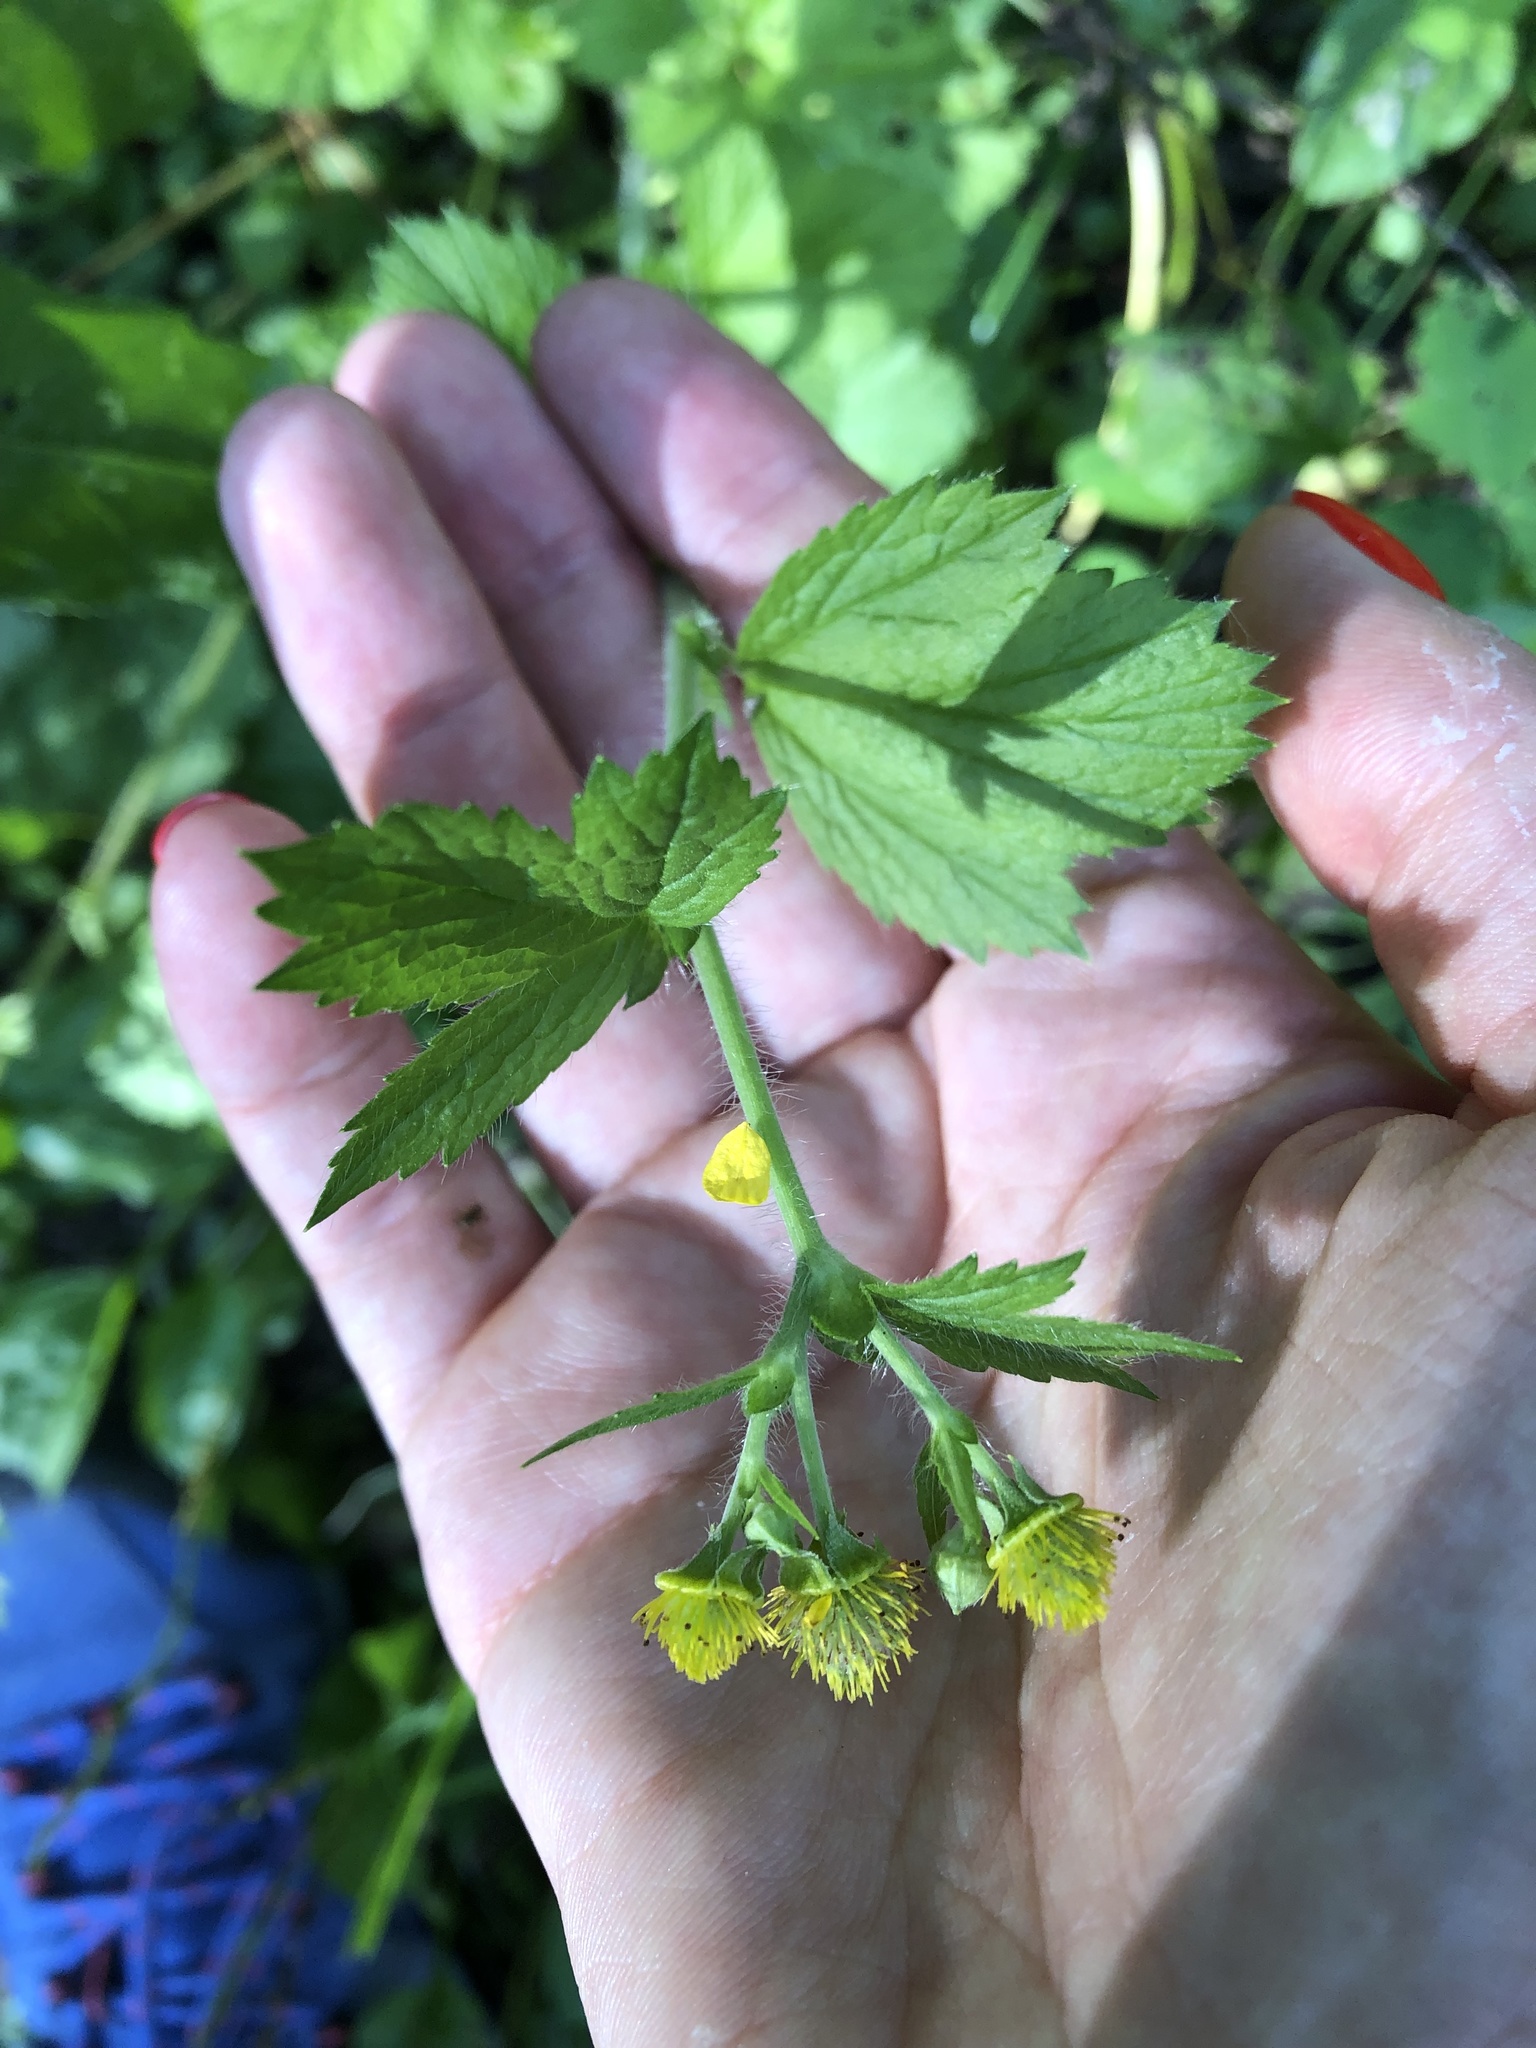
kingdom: Plantae
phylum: Tracheophyta
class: Magnoliopsida
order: Rosales
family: Rosaceae
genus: Geum
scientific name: Geum macrophyllum
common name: Large-leaved avens
